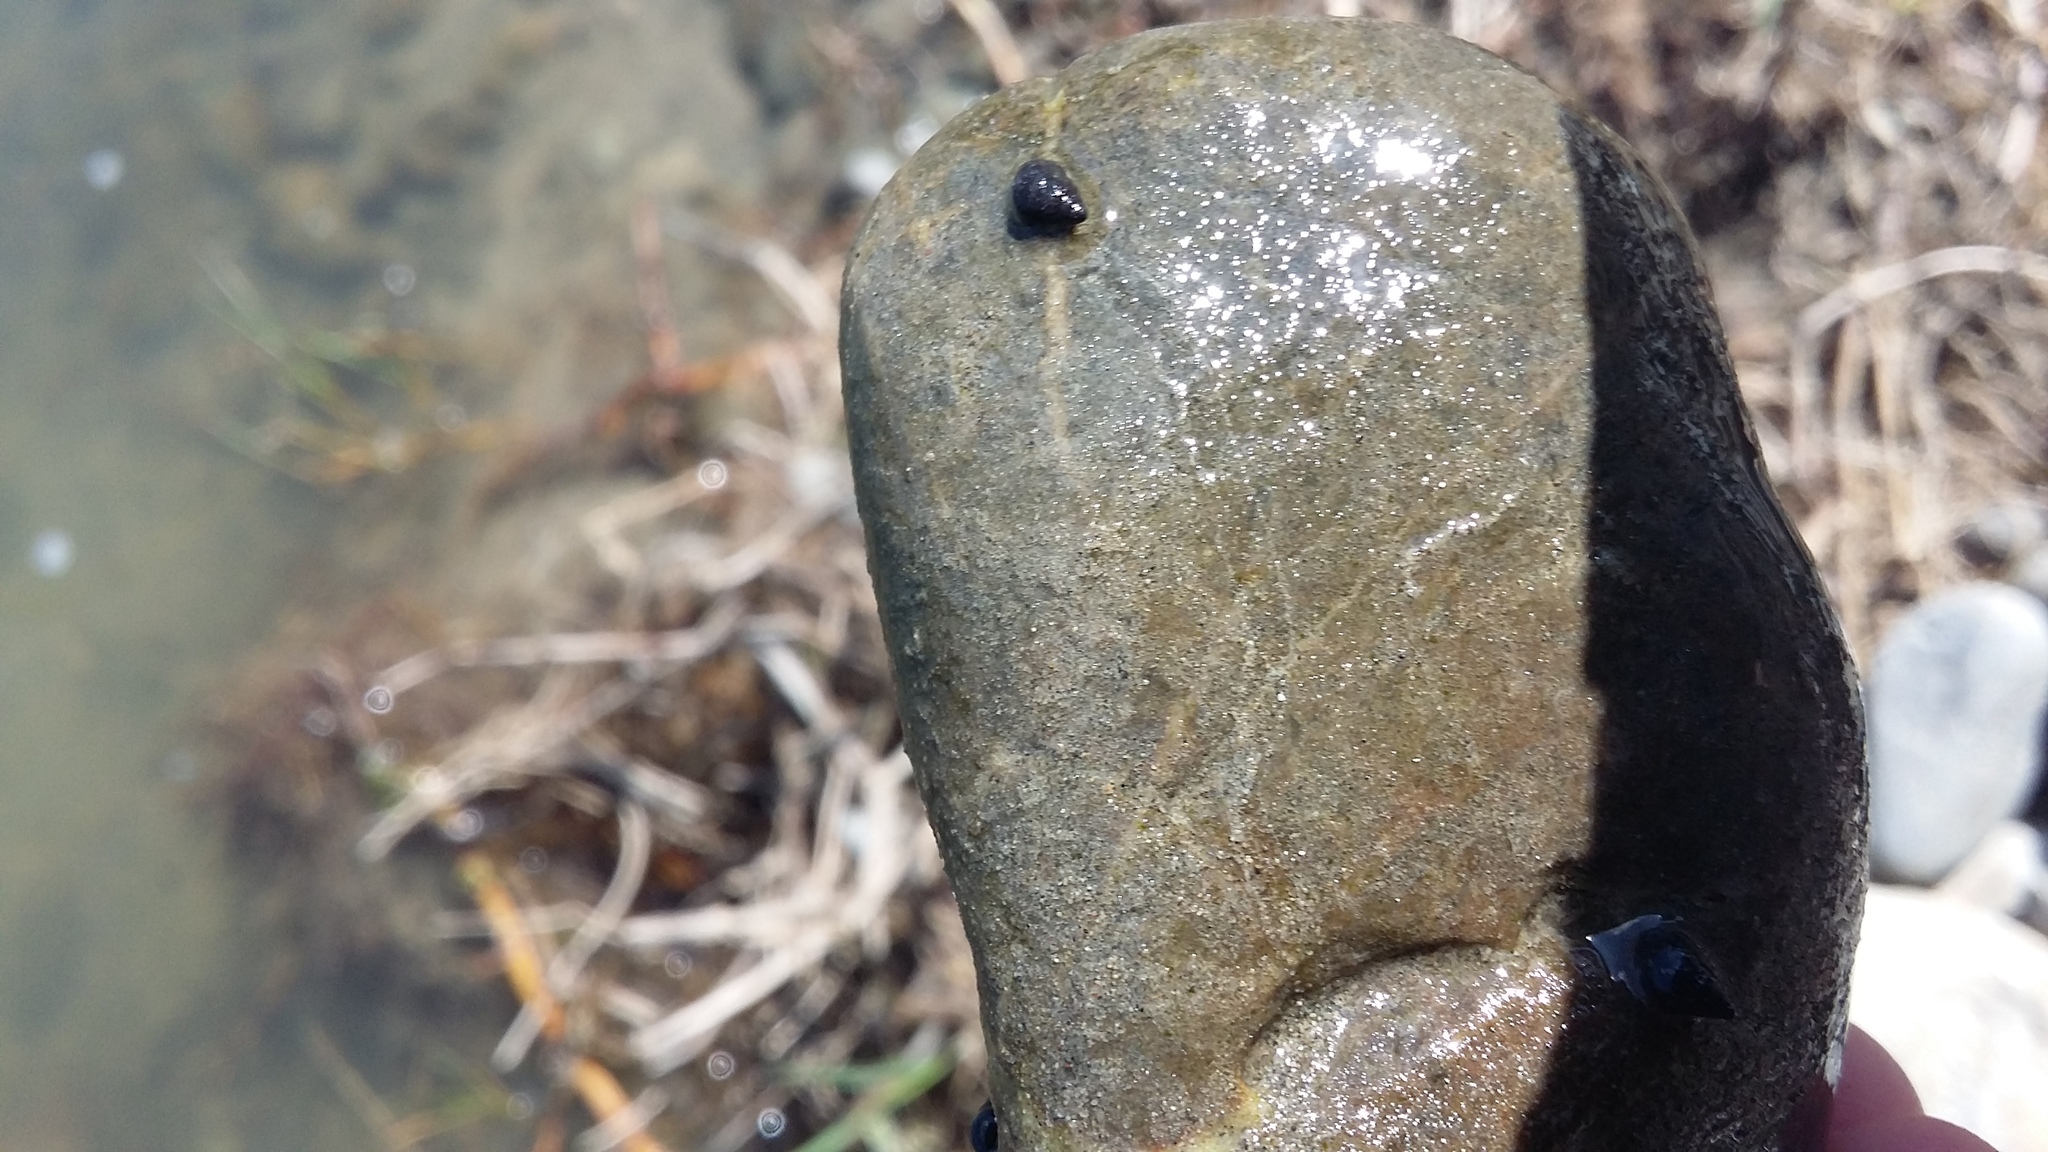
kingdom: Animalia
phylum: Mollusca
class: Gastropoda
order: Littorinimorpha
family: Tateidae
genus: Potamopyrgus
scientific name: Potamopyrgus antipodarum
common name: Jenkins' spire snail
